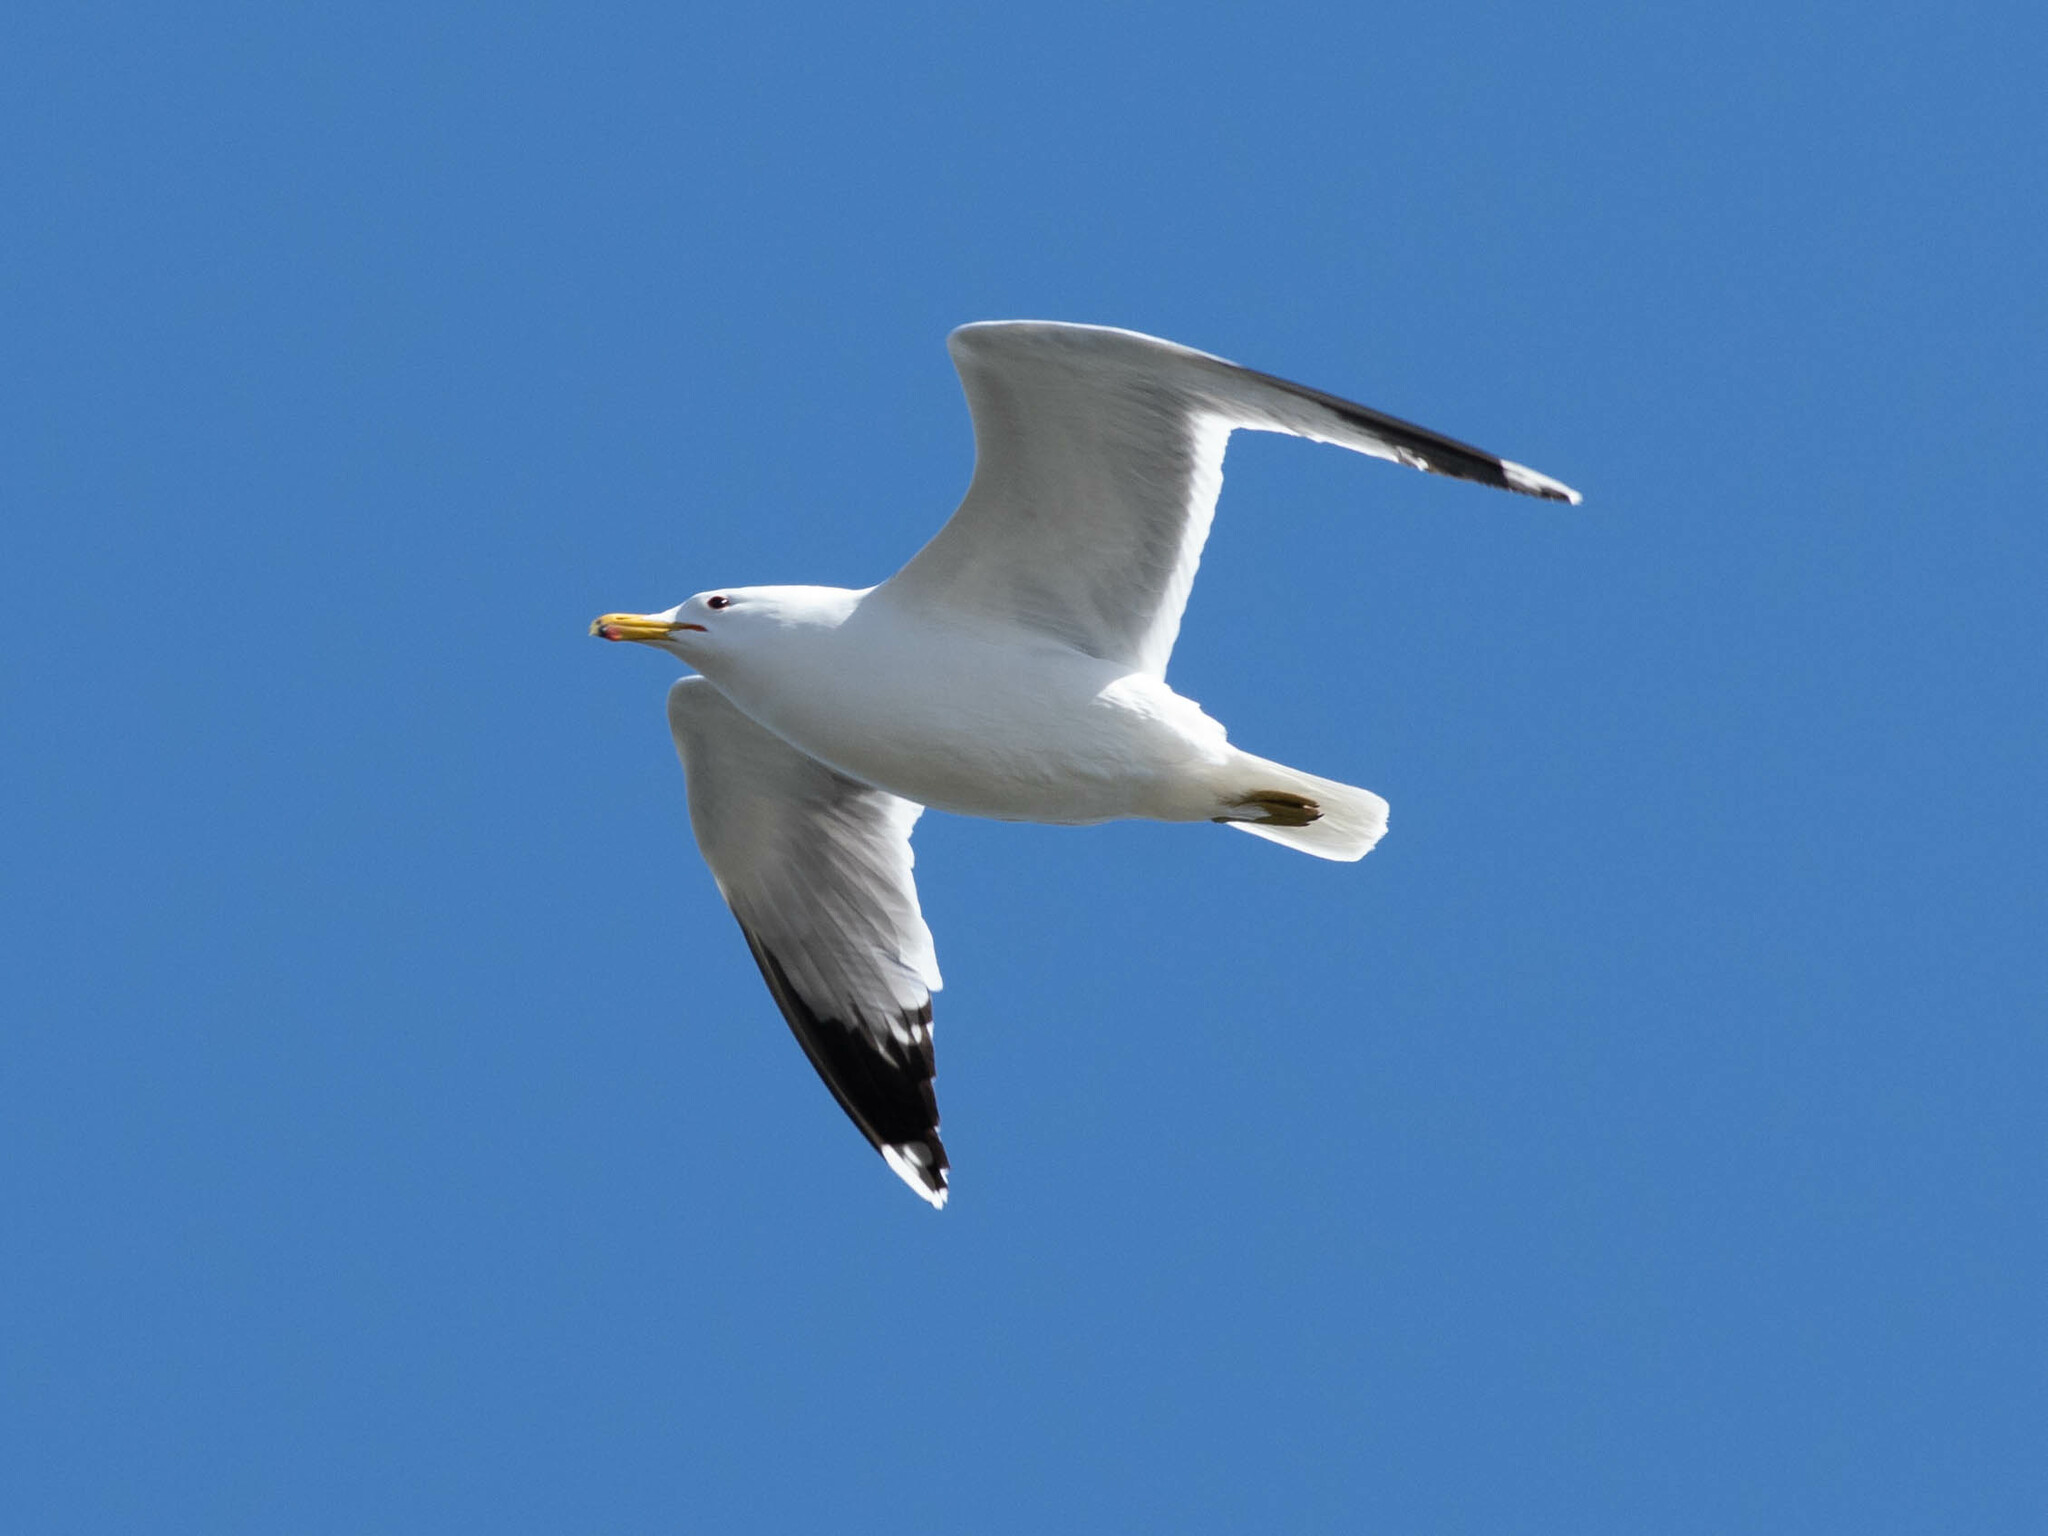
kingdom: Animalia
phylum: Chordata
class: Aves
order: Charadriiformes
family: Laridae
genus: Larus
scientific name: Larus californicus
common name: California gull
